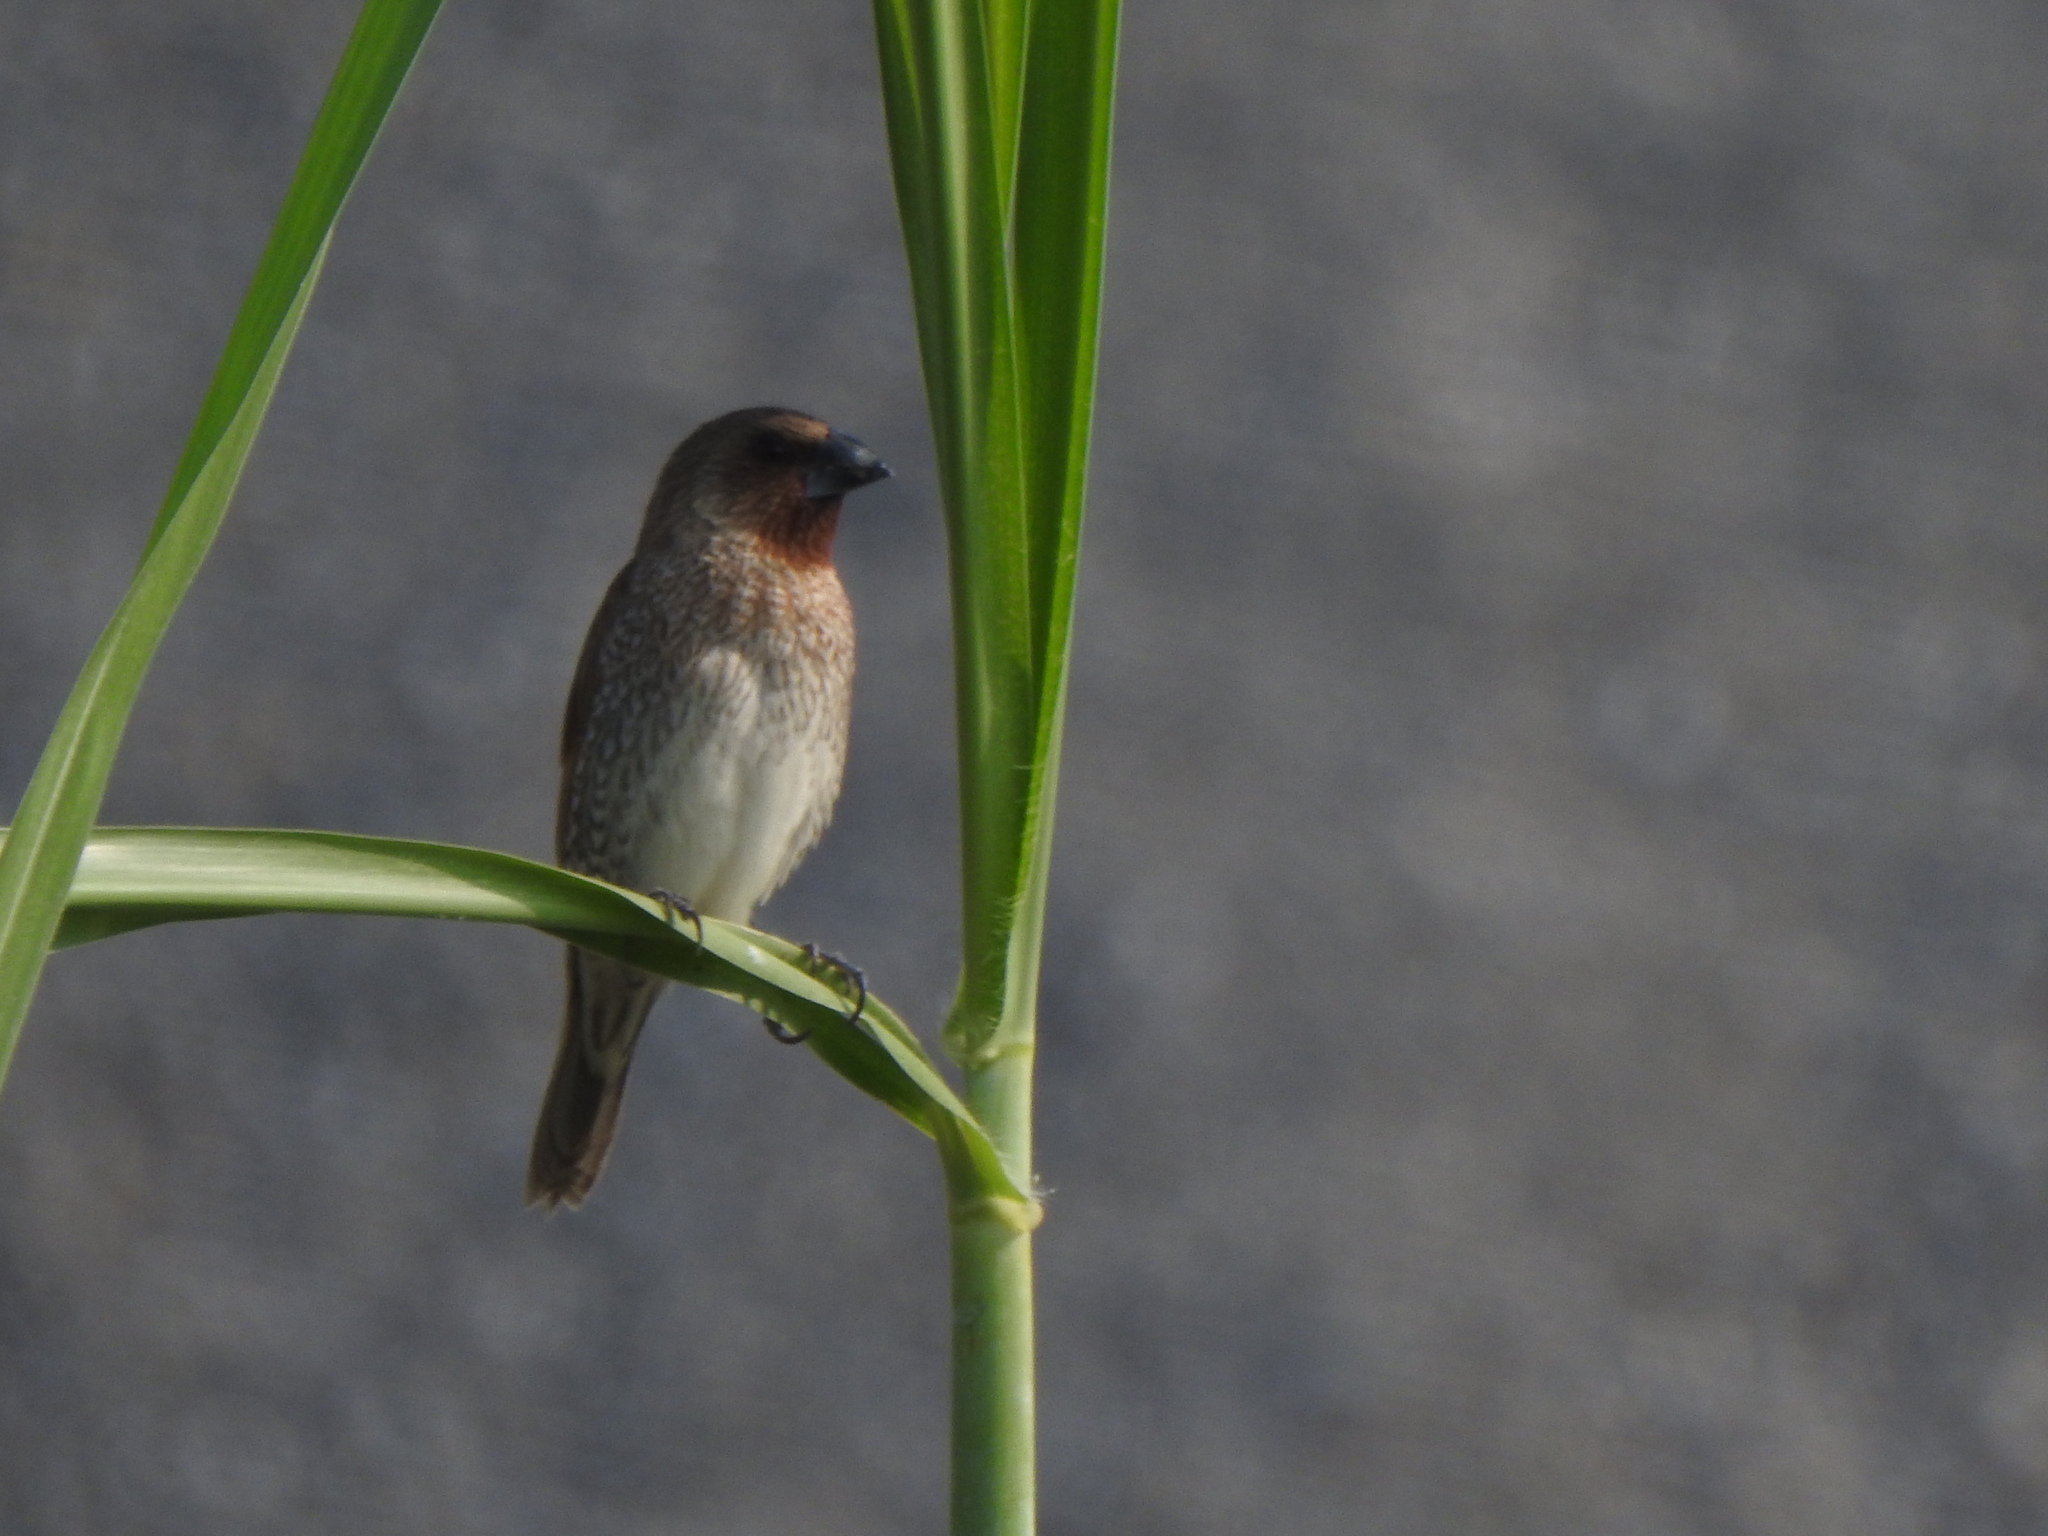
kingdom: Animalia
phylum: Chordata
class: Aves
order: Passeriformes
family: Estrildidae
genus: Lonchura
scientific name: Lonchura punctulata
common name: Scaly-breasted munia
